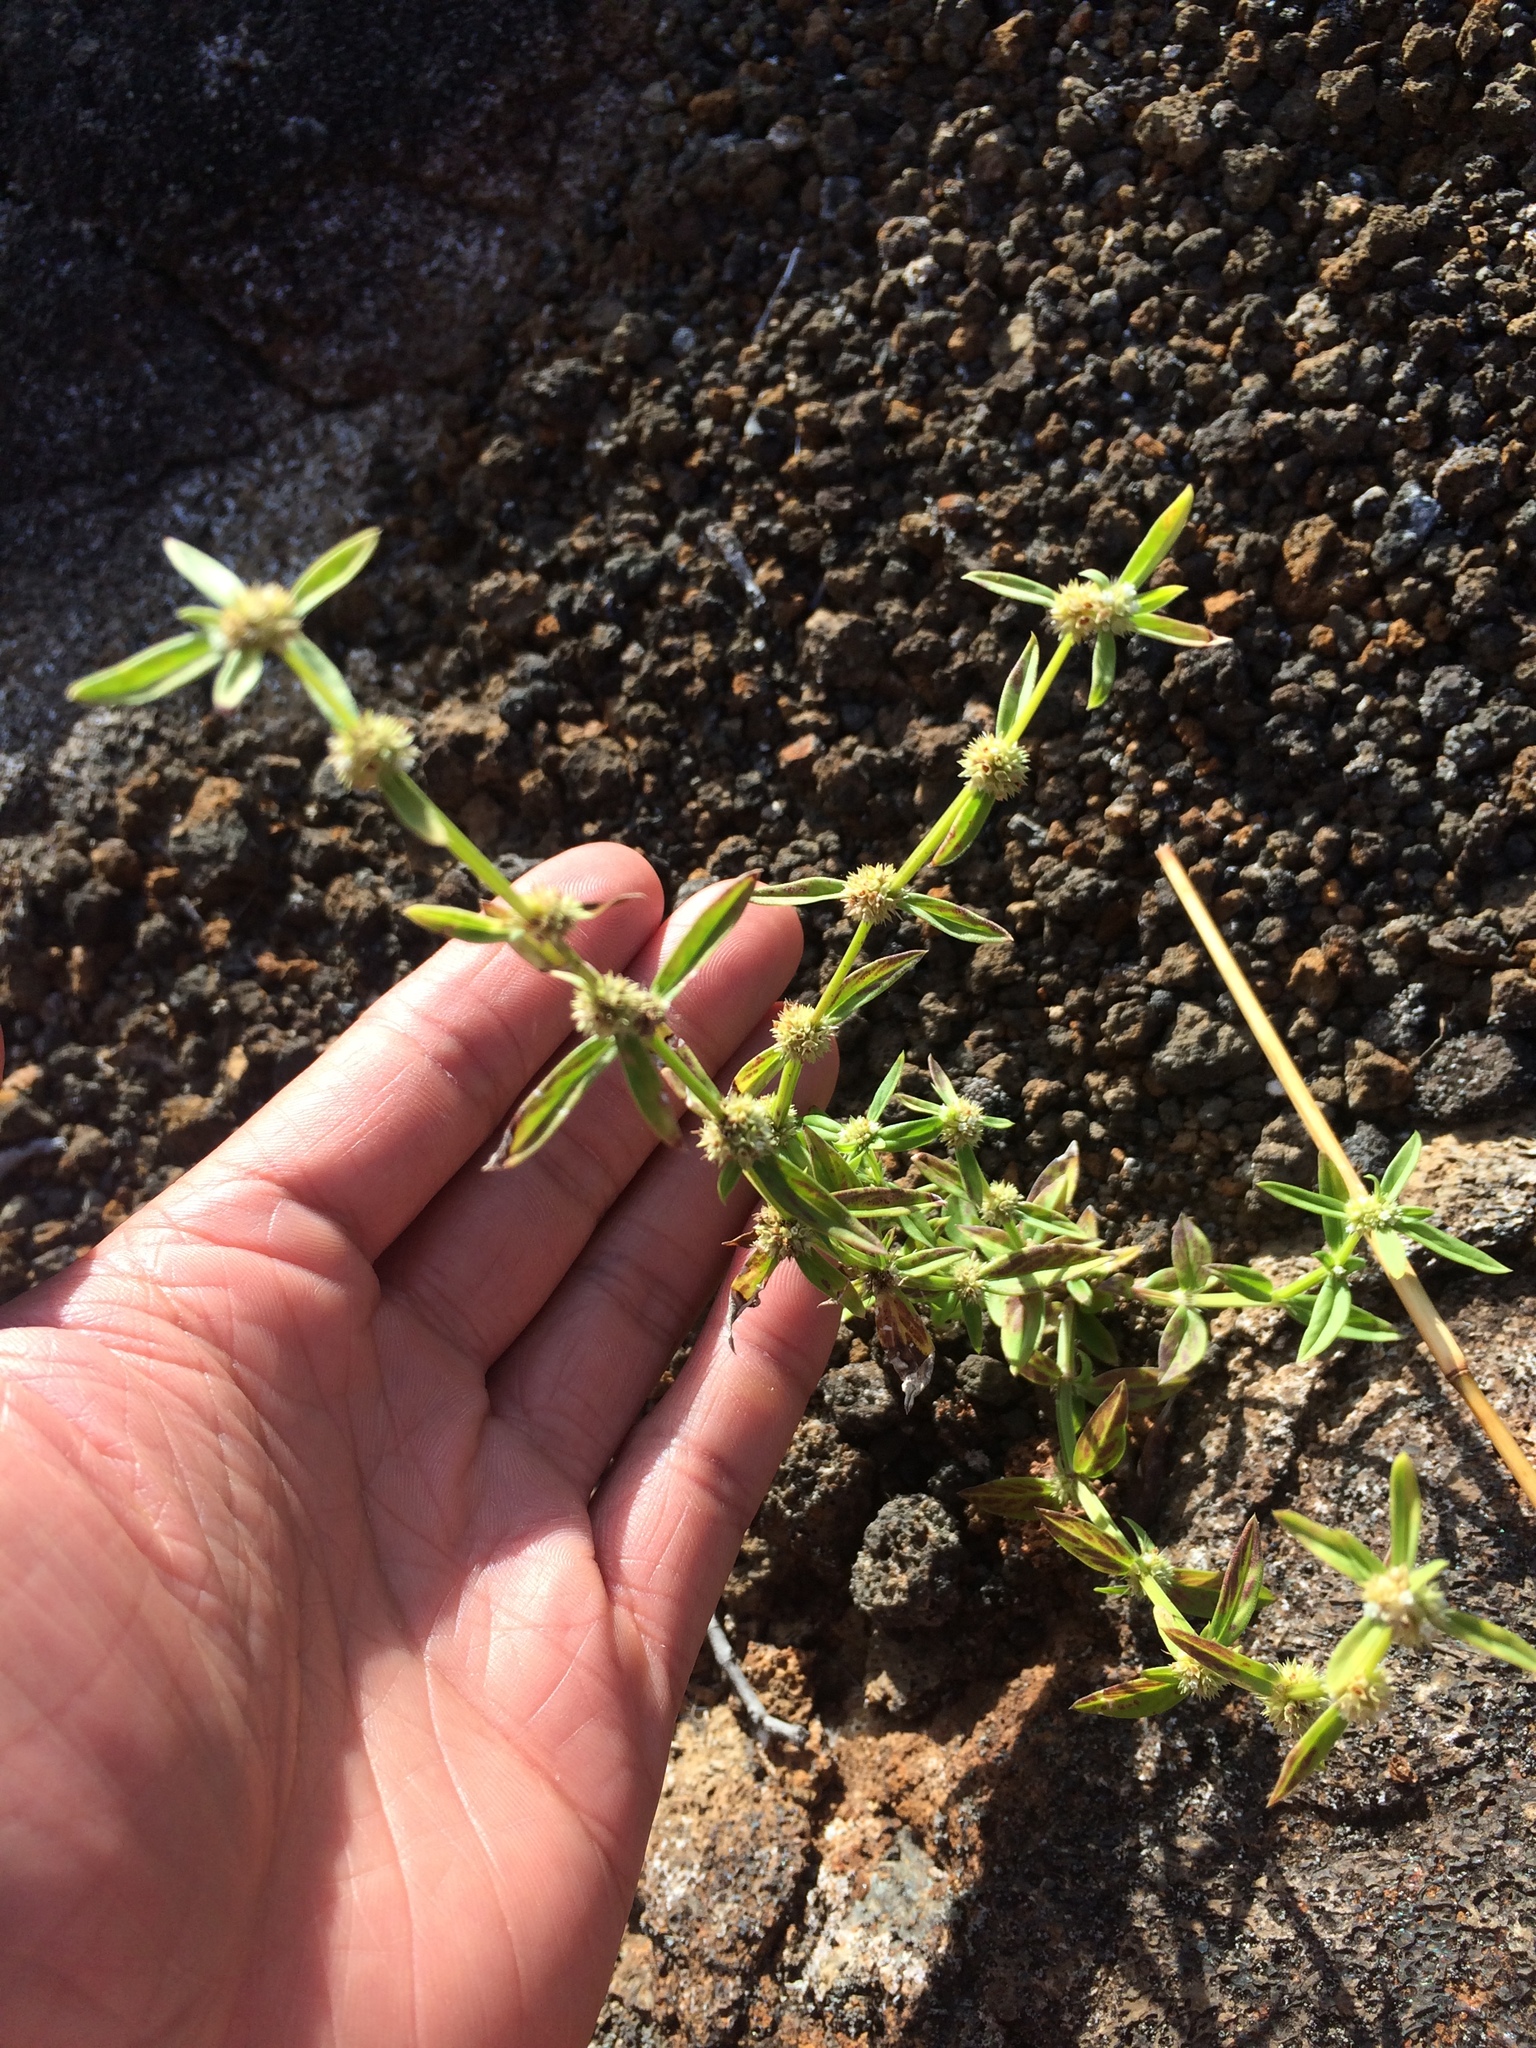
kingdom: Plantae
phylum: Tracheophyta
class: Magnoliopsida
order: Gentianales
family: Rubiaceae
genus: Spermacoce
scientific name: Spermacoce prostrata
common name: Prostrate false buttonweed
